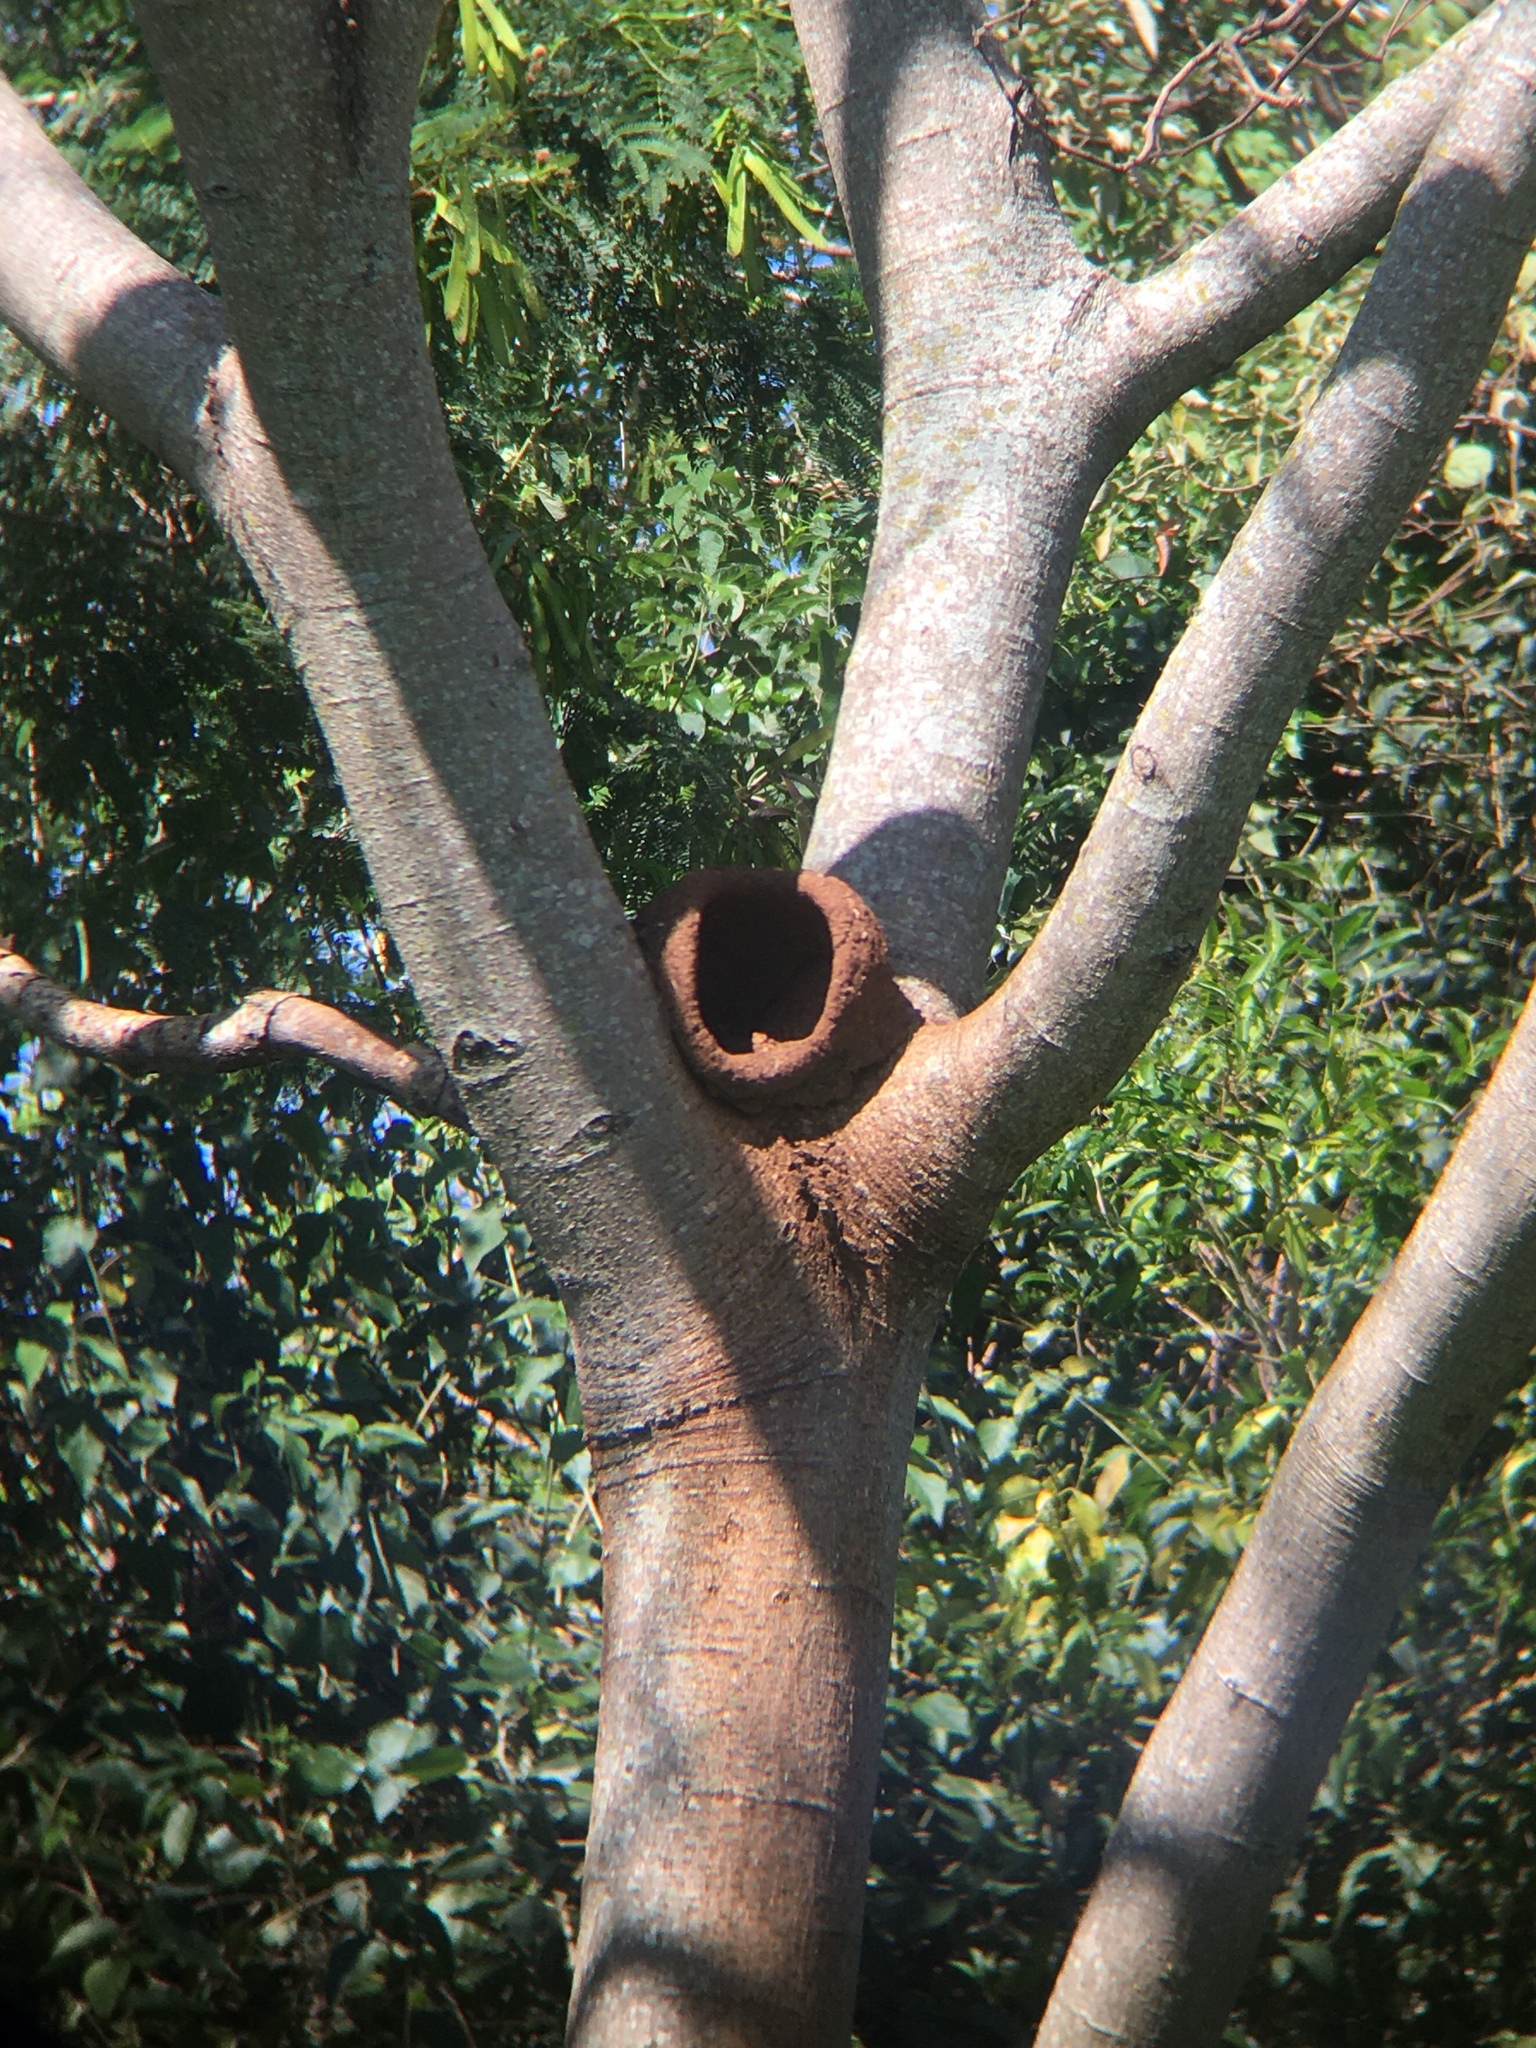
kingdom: Animalia
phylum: Chordata
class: Aves
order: Passeriformes
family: Furnariidae
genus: Furnarius
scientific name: Furnarius rufus
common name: Rufous hornero
